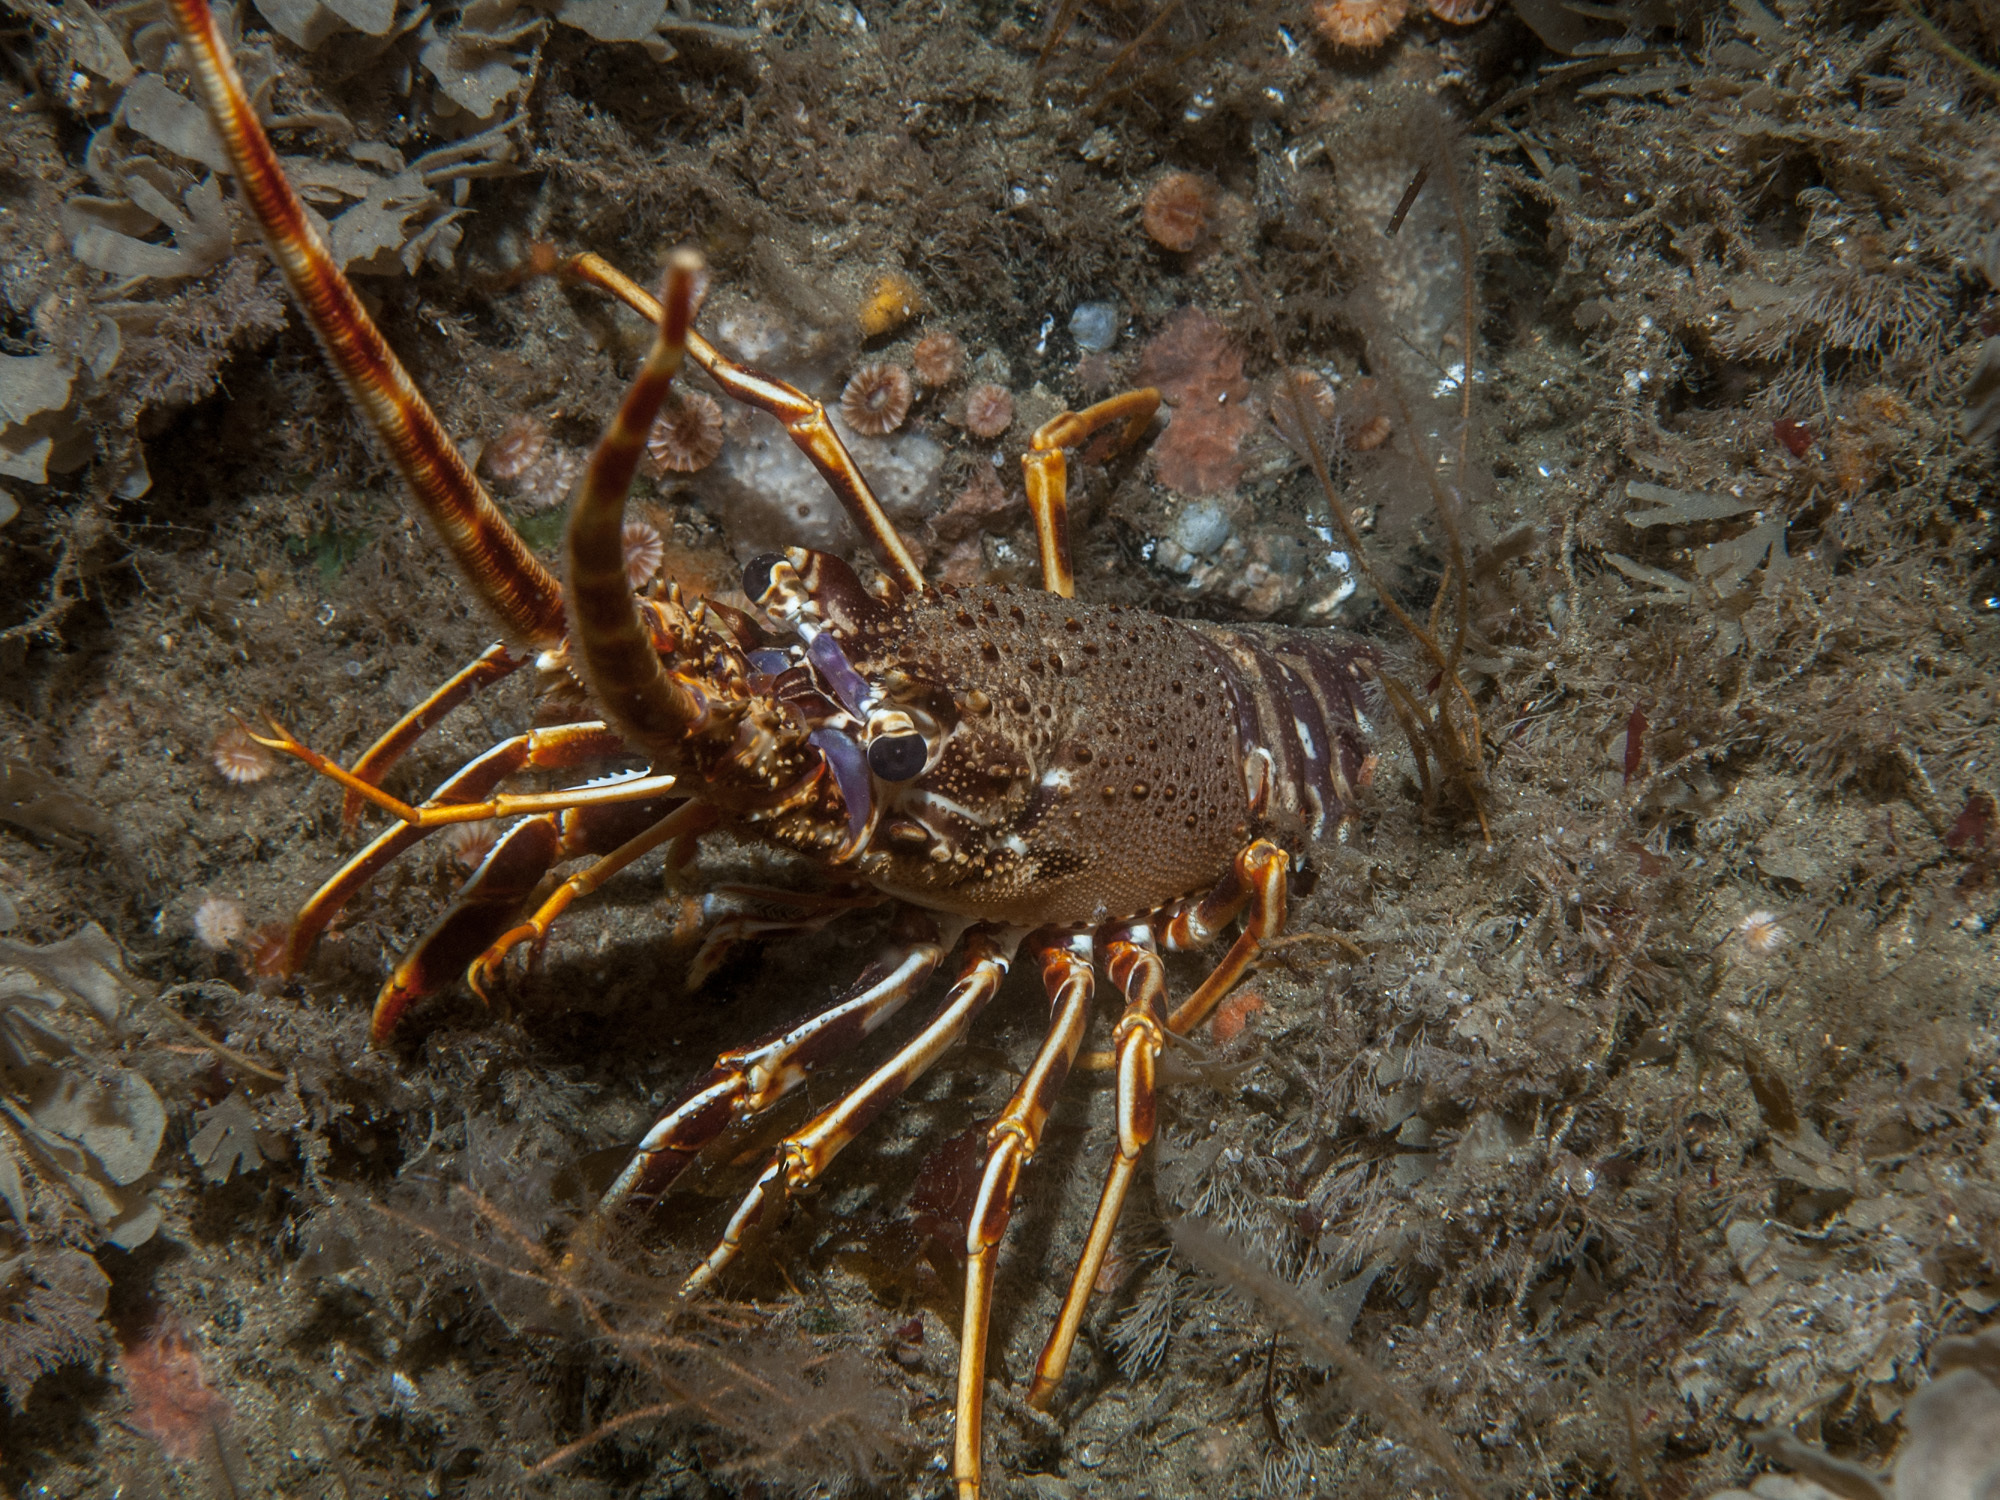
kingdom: Animalia
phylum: Arthropoda
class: Malacostraca
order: Decapoda
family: Palinuridae
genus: Palinurus
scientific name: Palinurus elephas
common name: European spiny lobster
